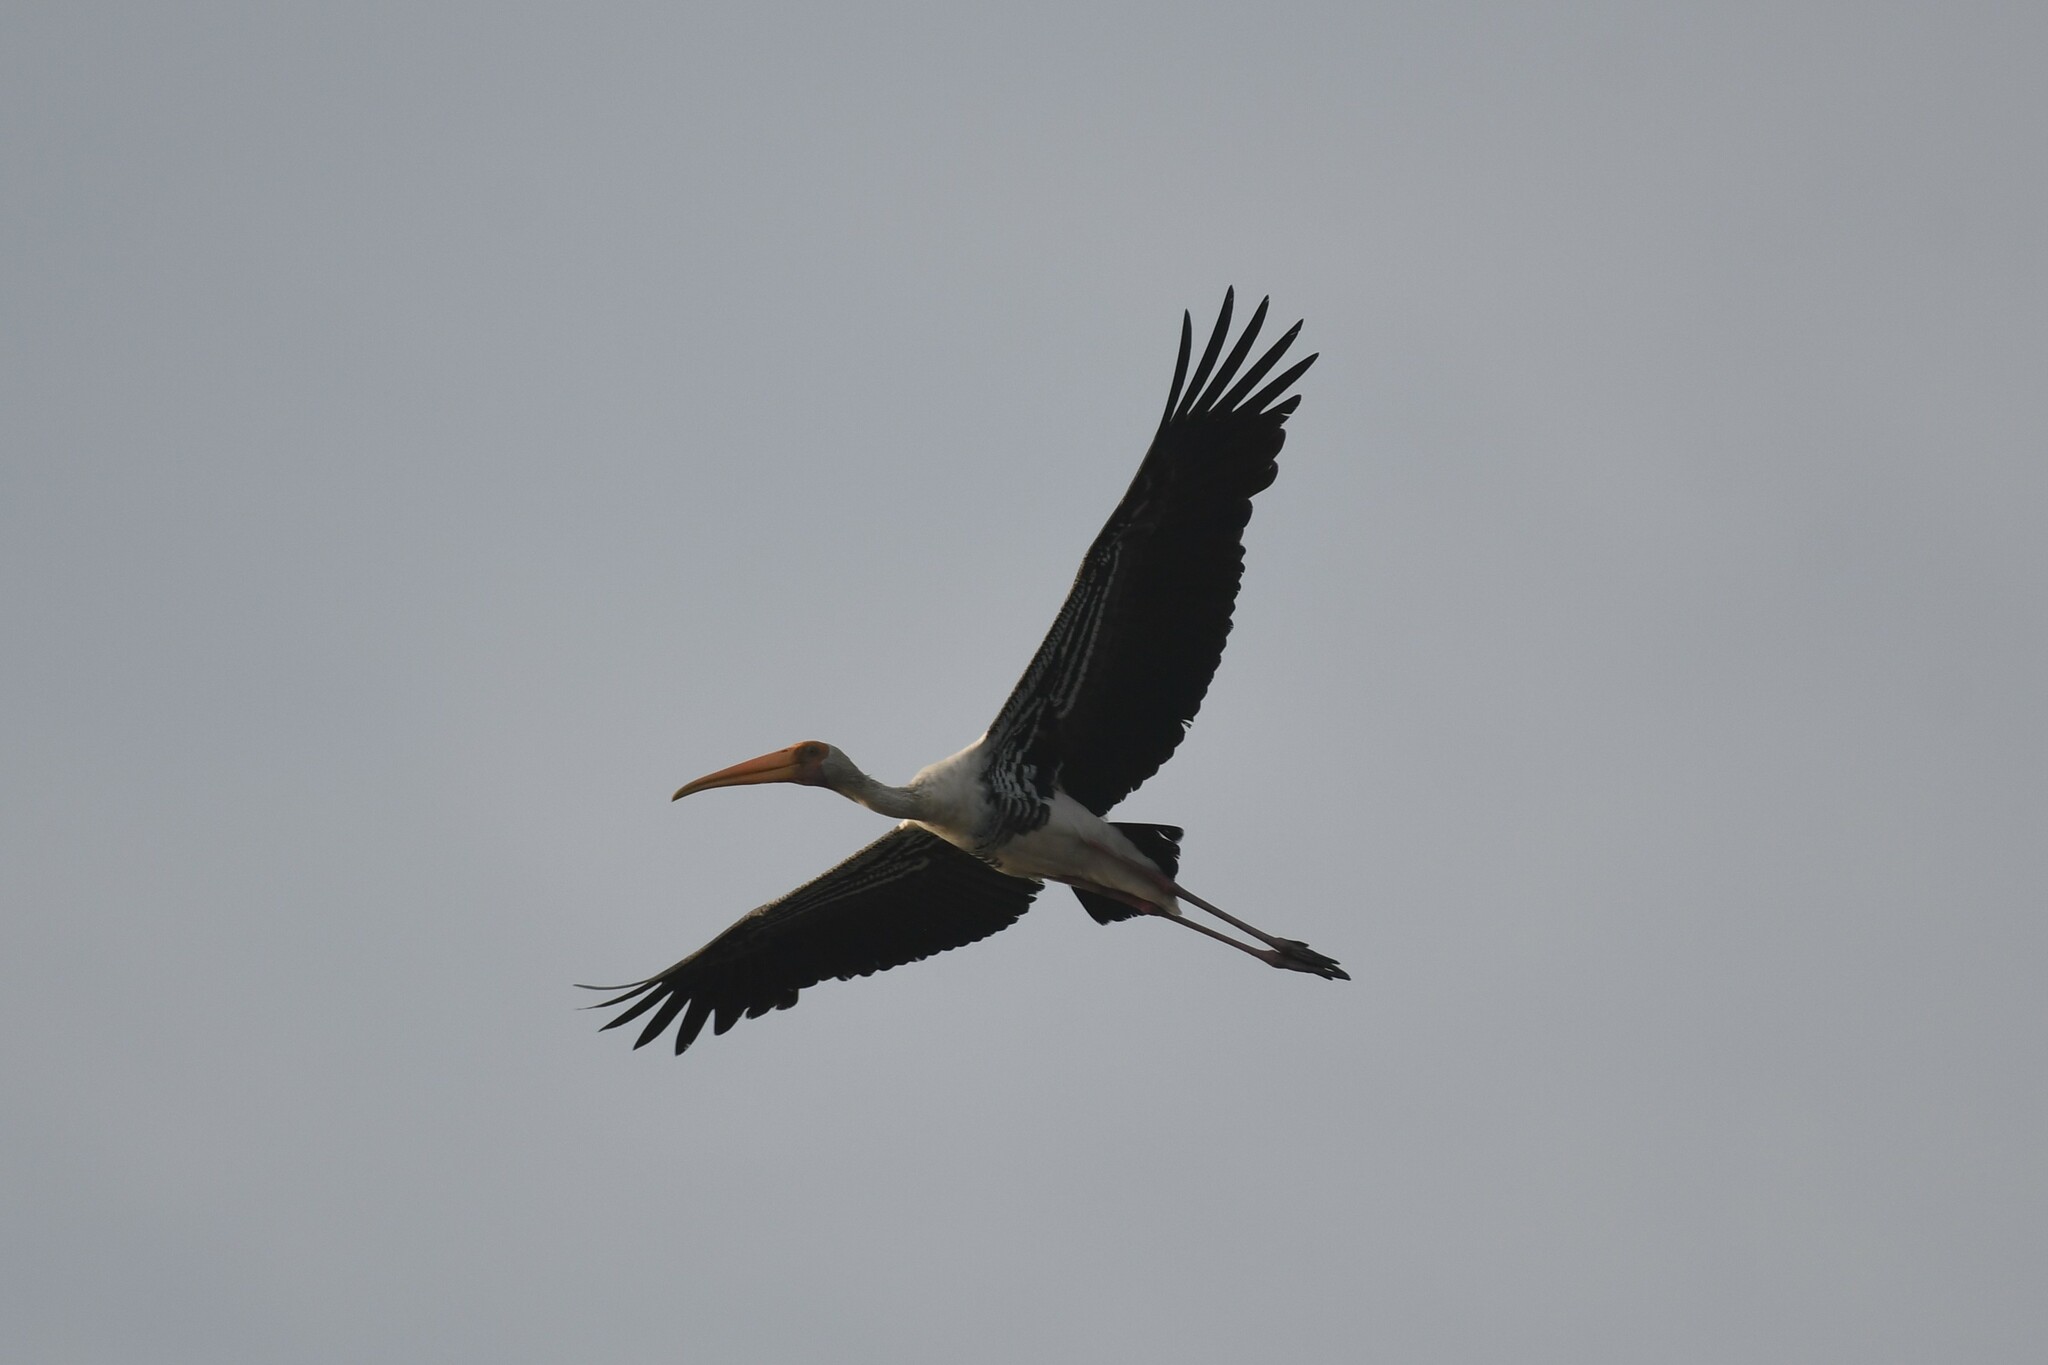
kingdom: Animalia
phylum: Chordata
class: Aves
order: Ciconiiformes
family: Ciconiidae
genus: Mycteria
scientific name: Mycteria leucocephala
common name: Painted stork
